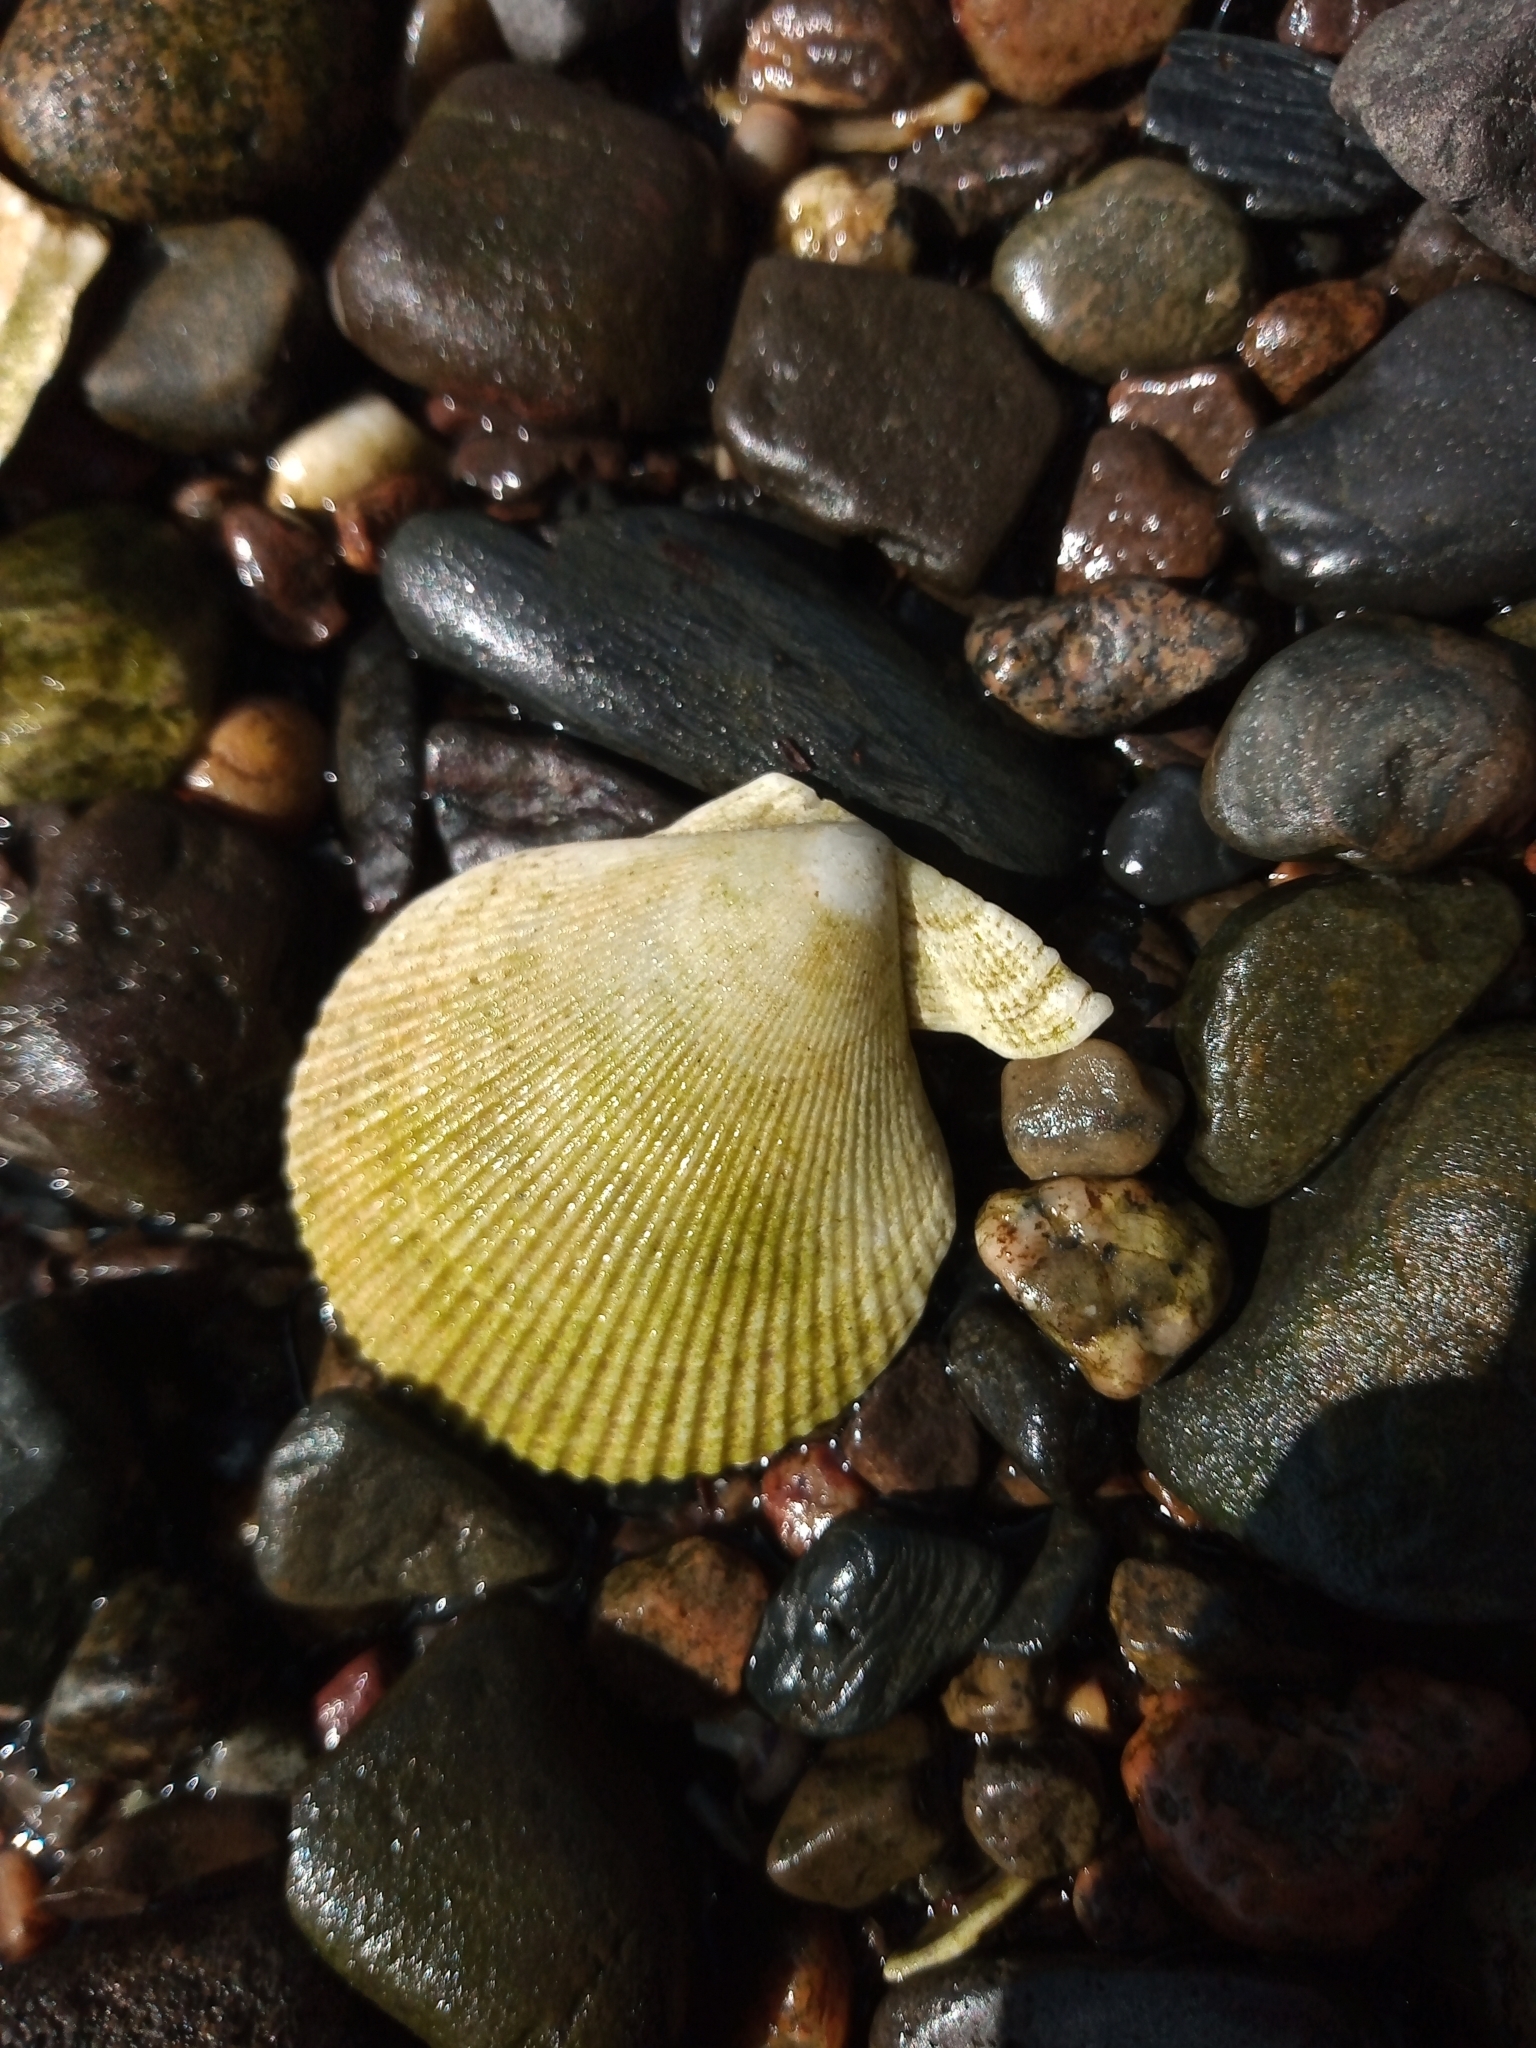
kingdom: Animalia
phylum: Mollusca
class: Bivalvia
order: Pectinida
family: Pectinidae
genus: Mimachlamys
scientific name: Mimachlamys varia
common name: Variegated scallop
